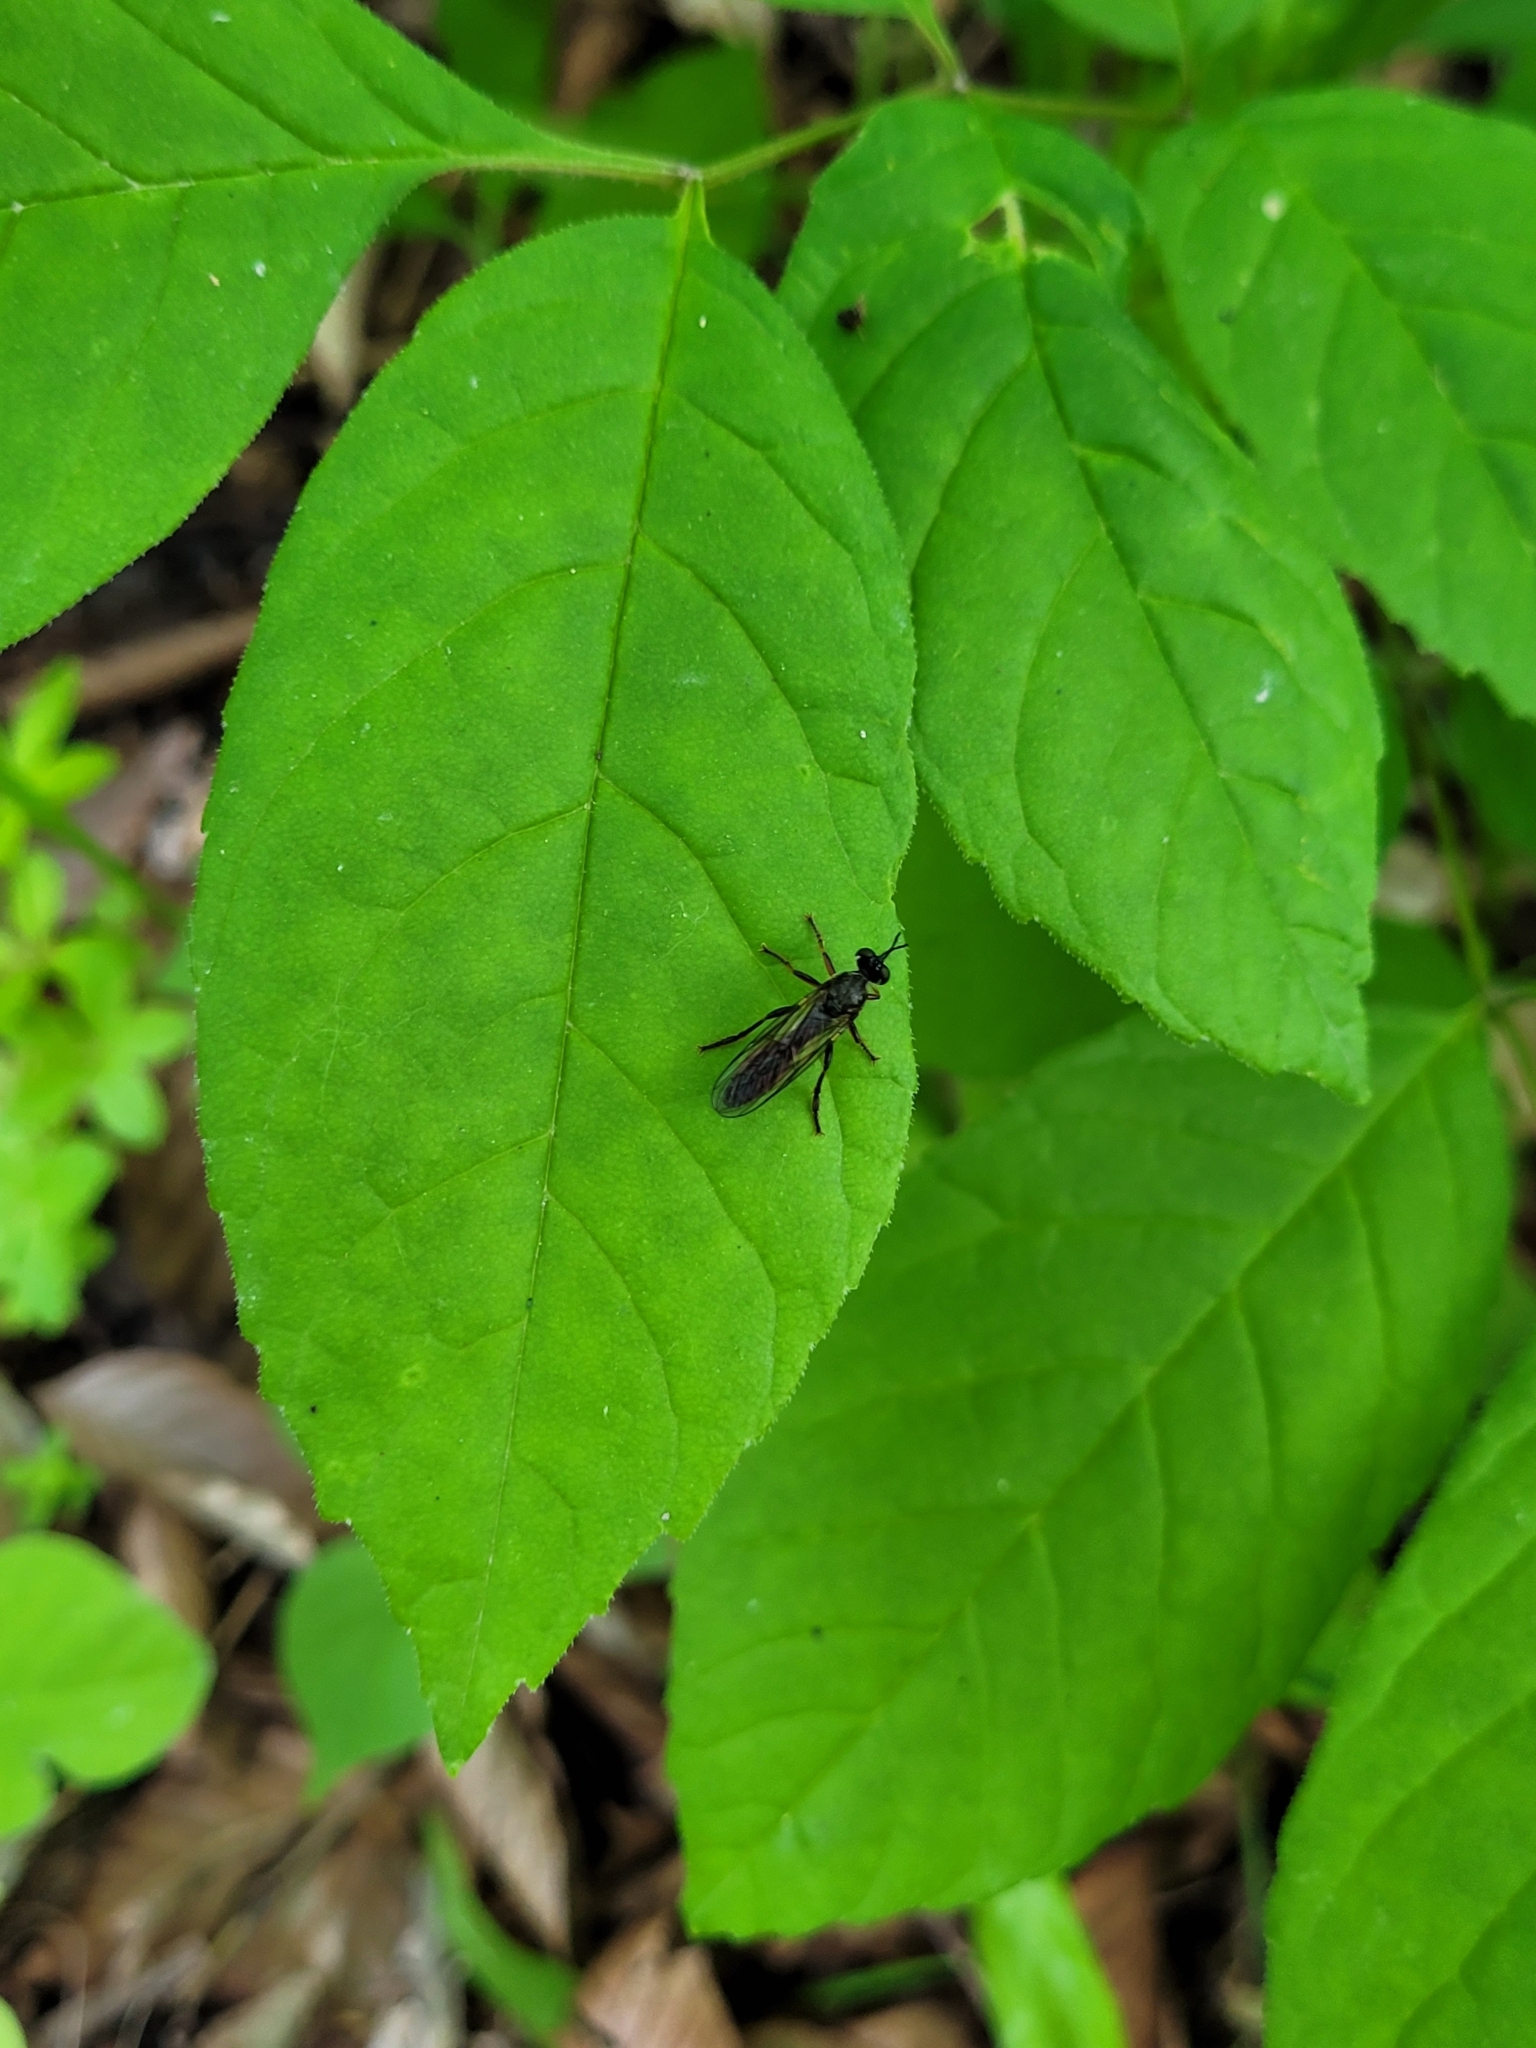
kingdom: Animalia
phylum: Arthropoda
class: Insecta
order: Diptera
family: Asilidae
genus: Dioctria
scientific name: Dioctria hyalipennis
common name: Stripe-legged robberfly
